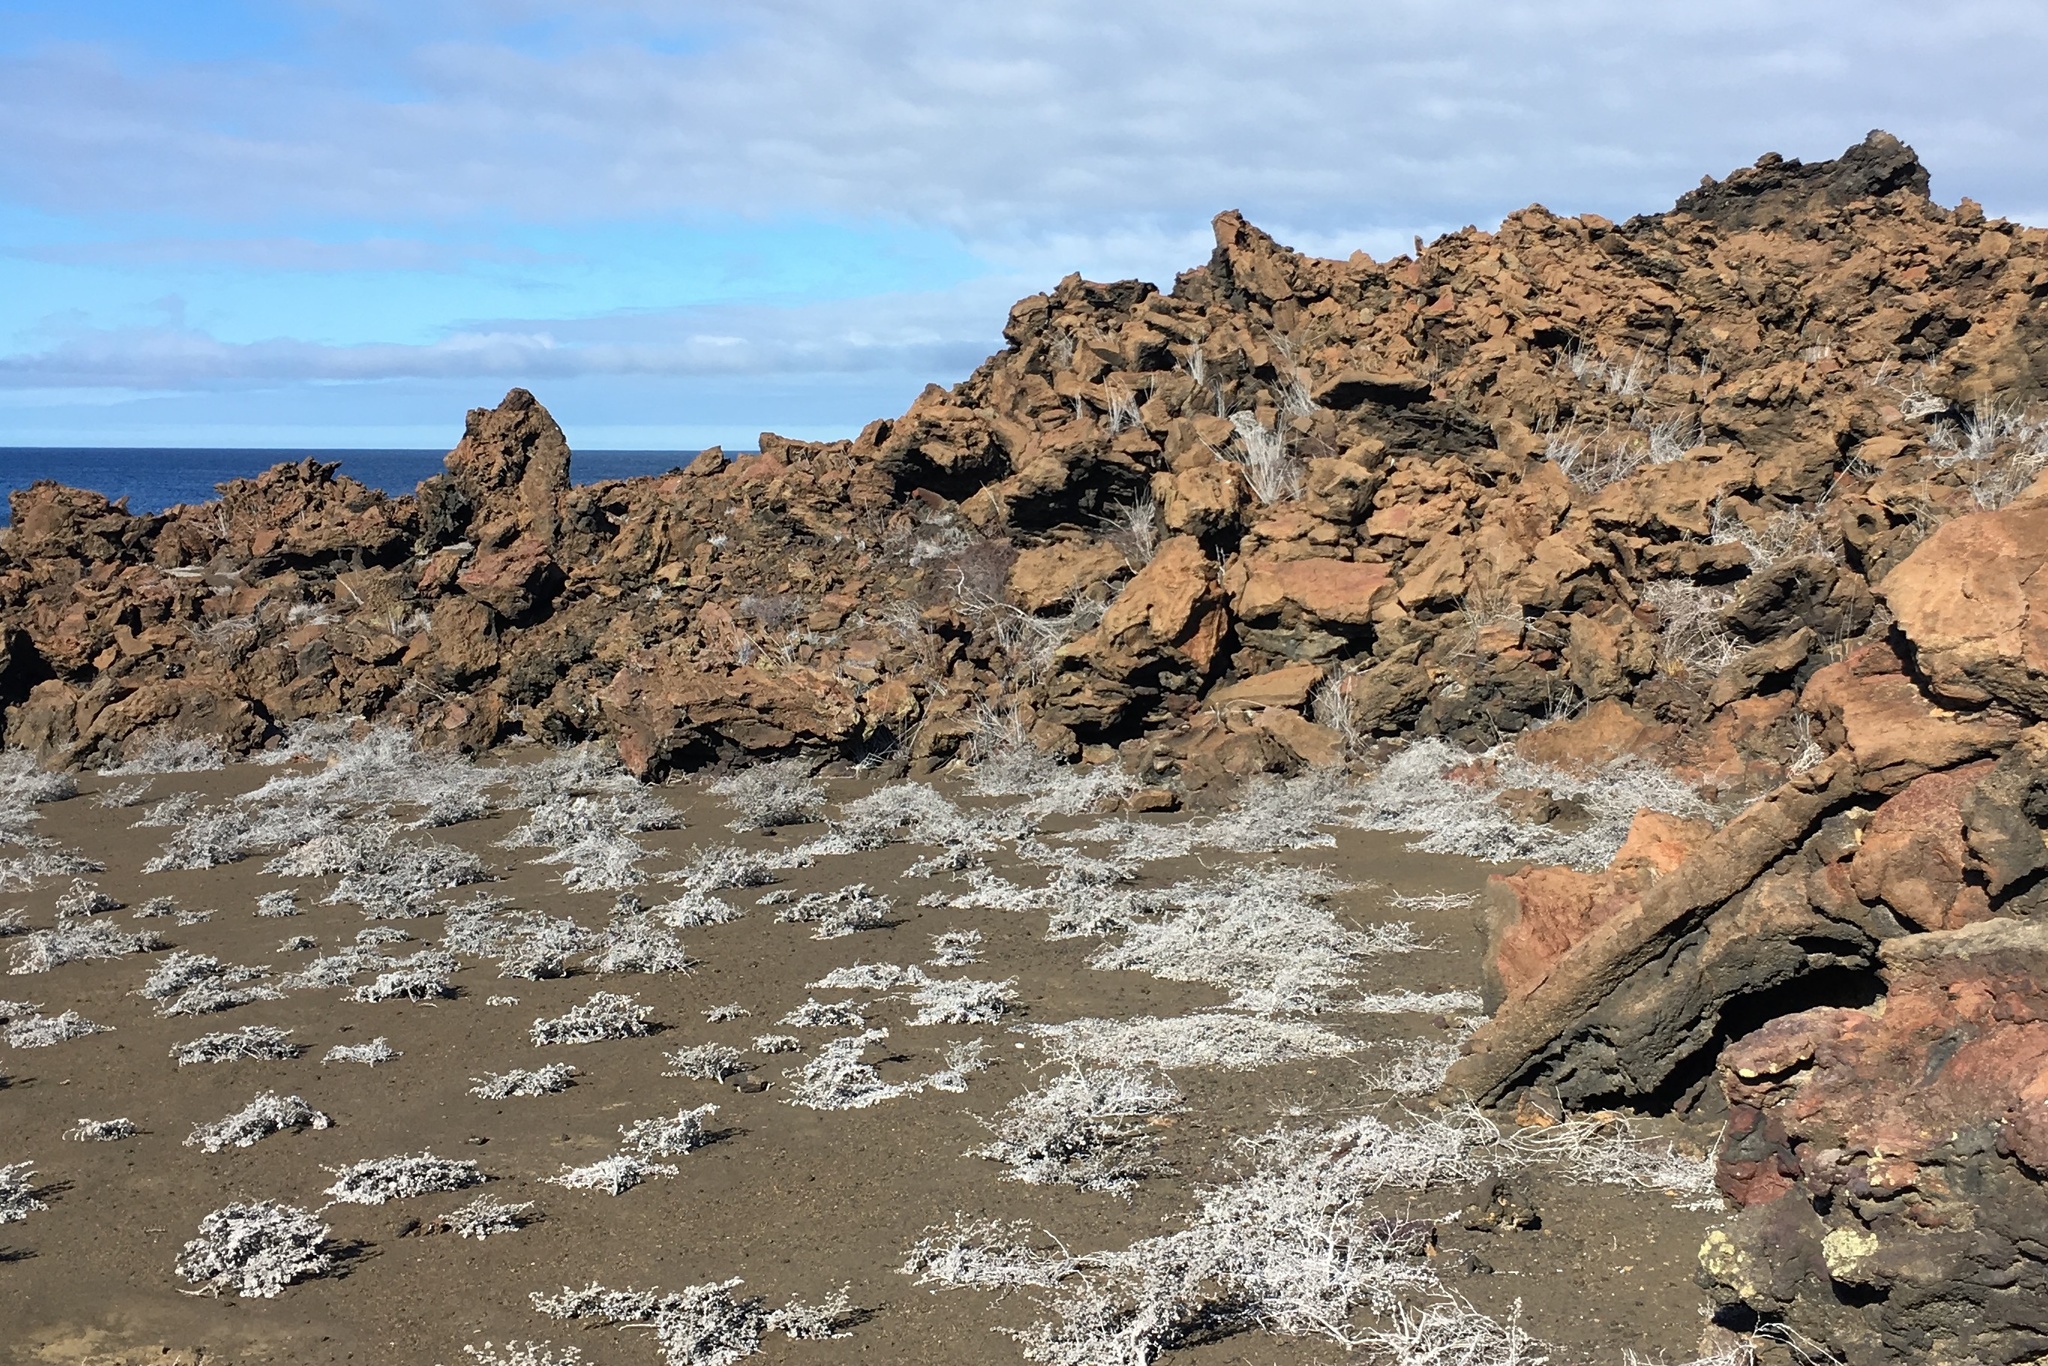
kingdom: Plantae
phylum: Tracheophyta
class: Magnoliopsida
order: Boraginales
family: Ehretiaceae
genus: Tiquilia
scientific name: Tiquilia nesiotica
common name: Gray matplant
